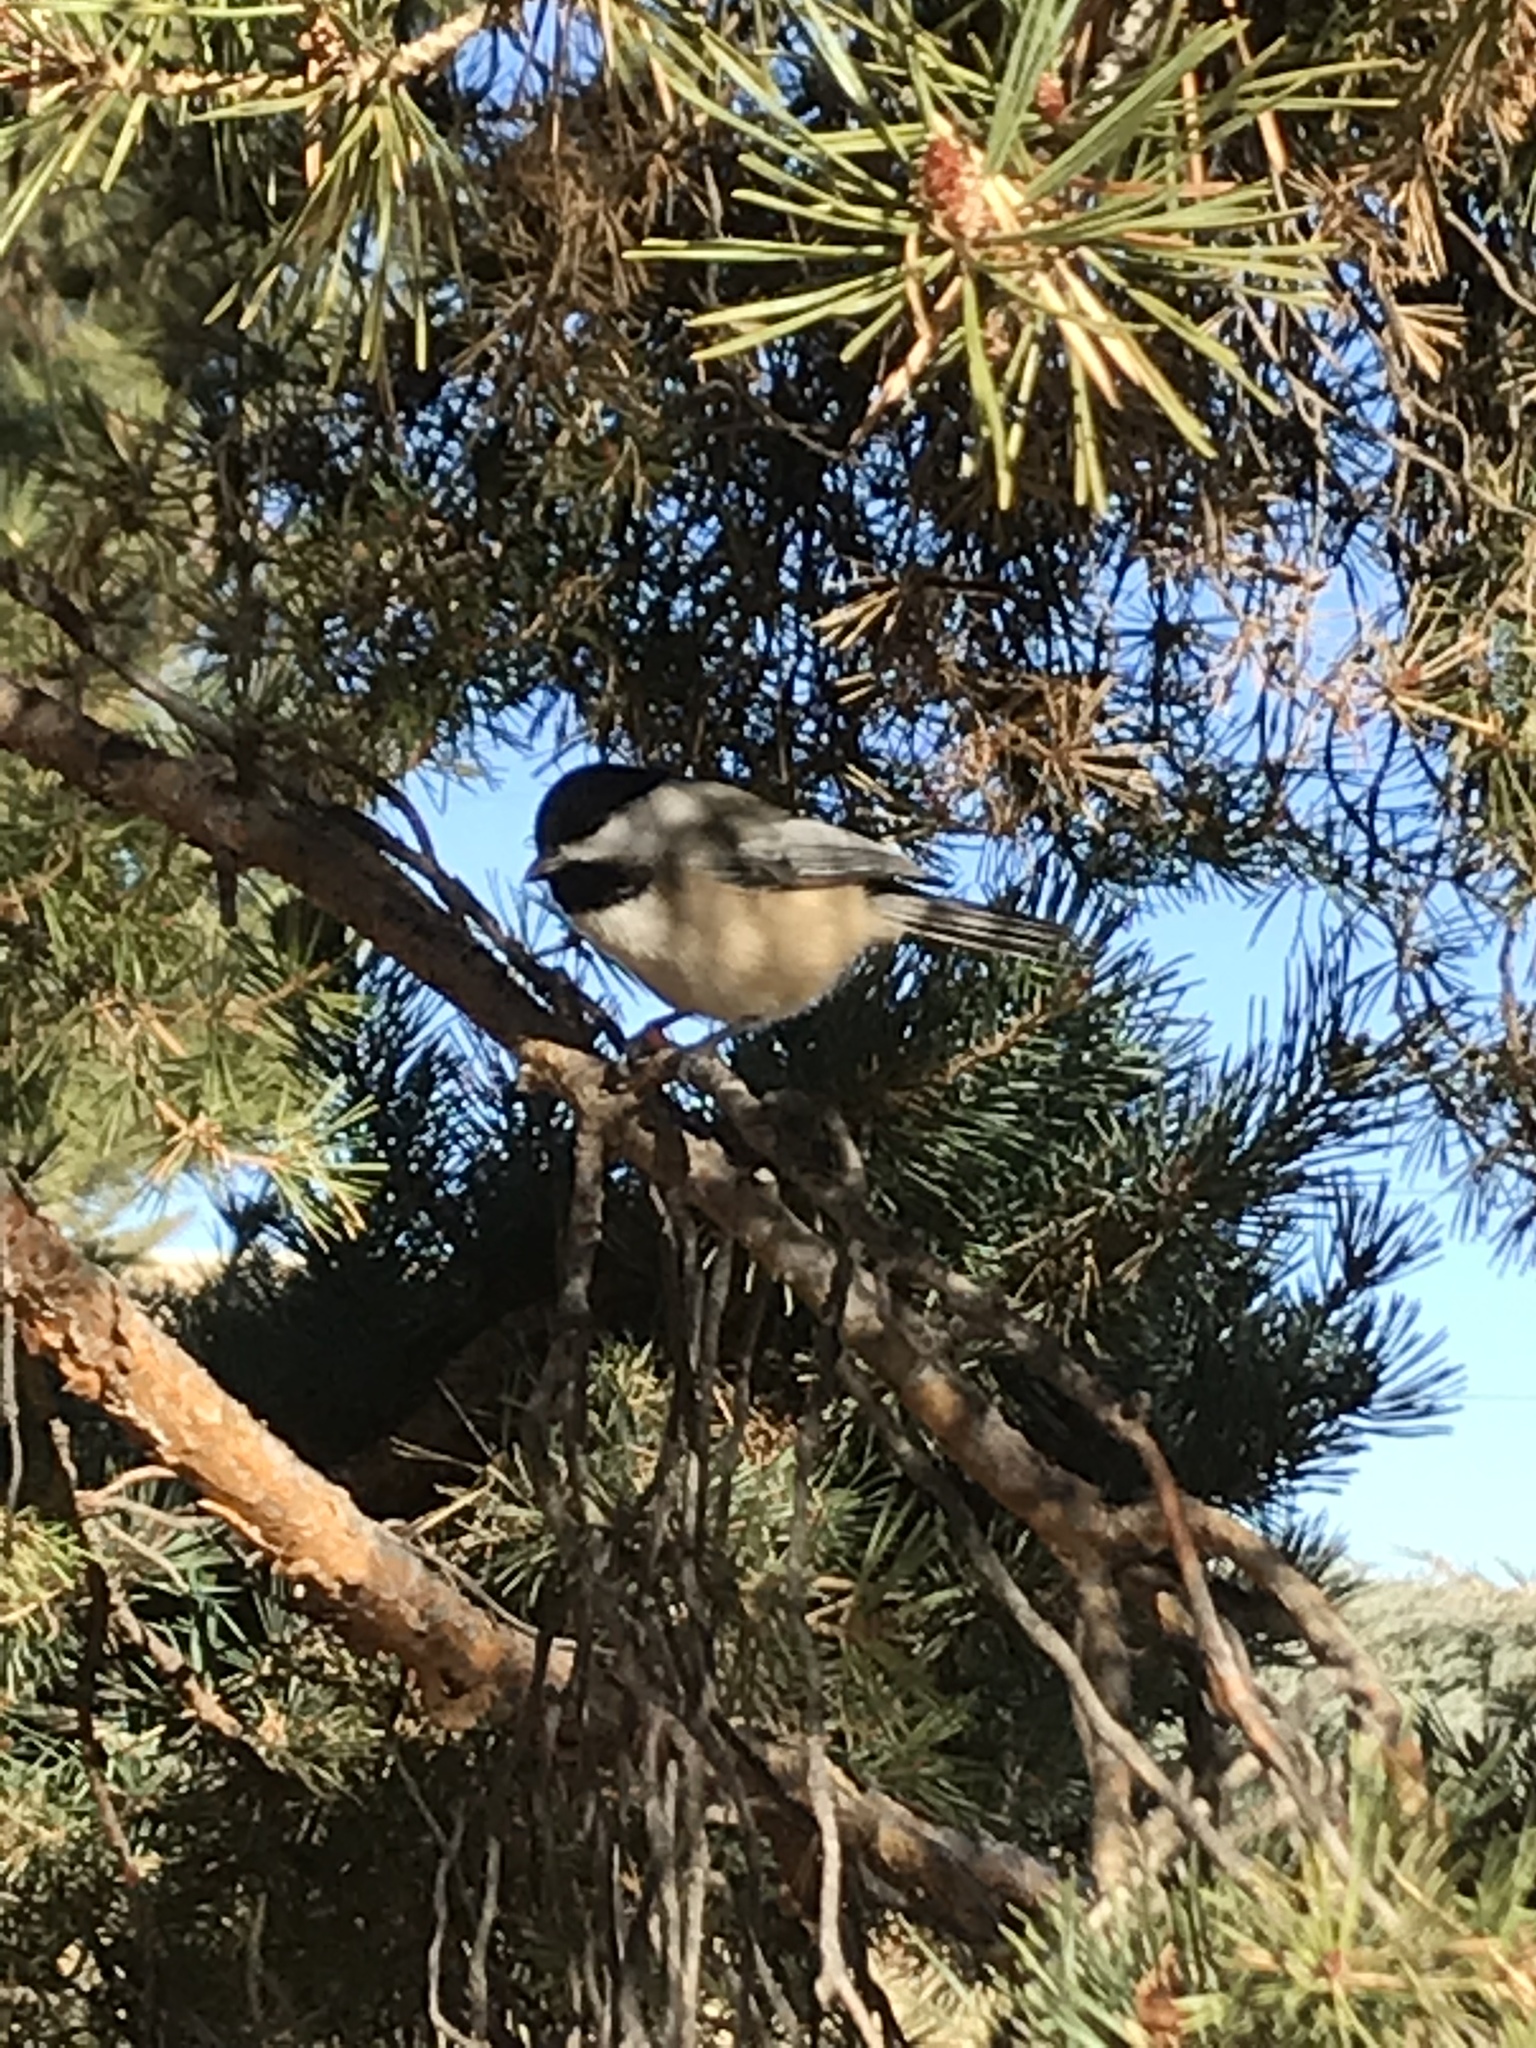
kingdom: Animalia
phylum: Chordata
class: Aves
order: Passeriformes
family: Paridae
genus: Poecile
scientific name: Poecile atricapillus
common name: Black-capped chickadee
